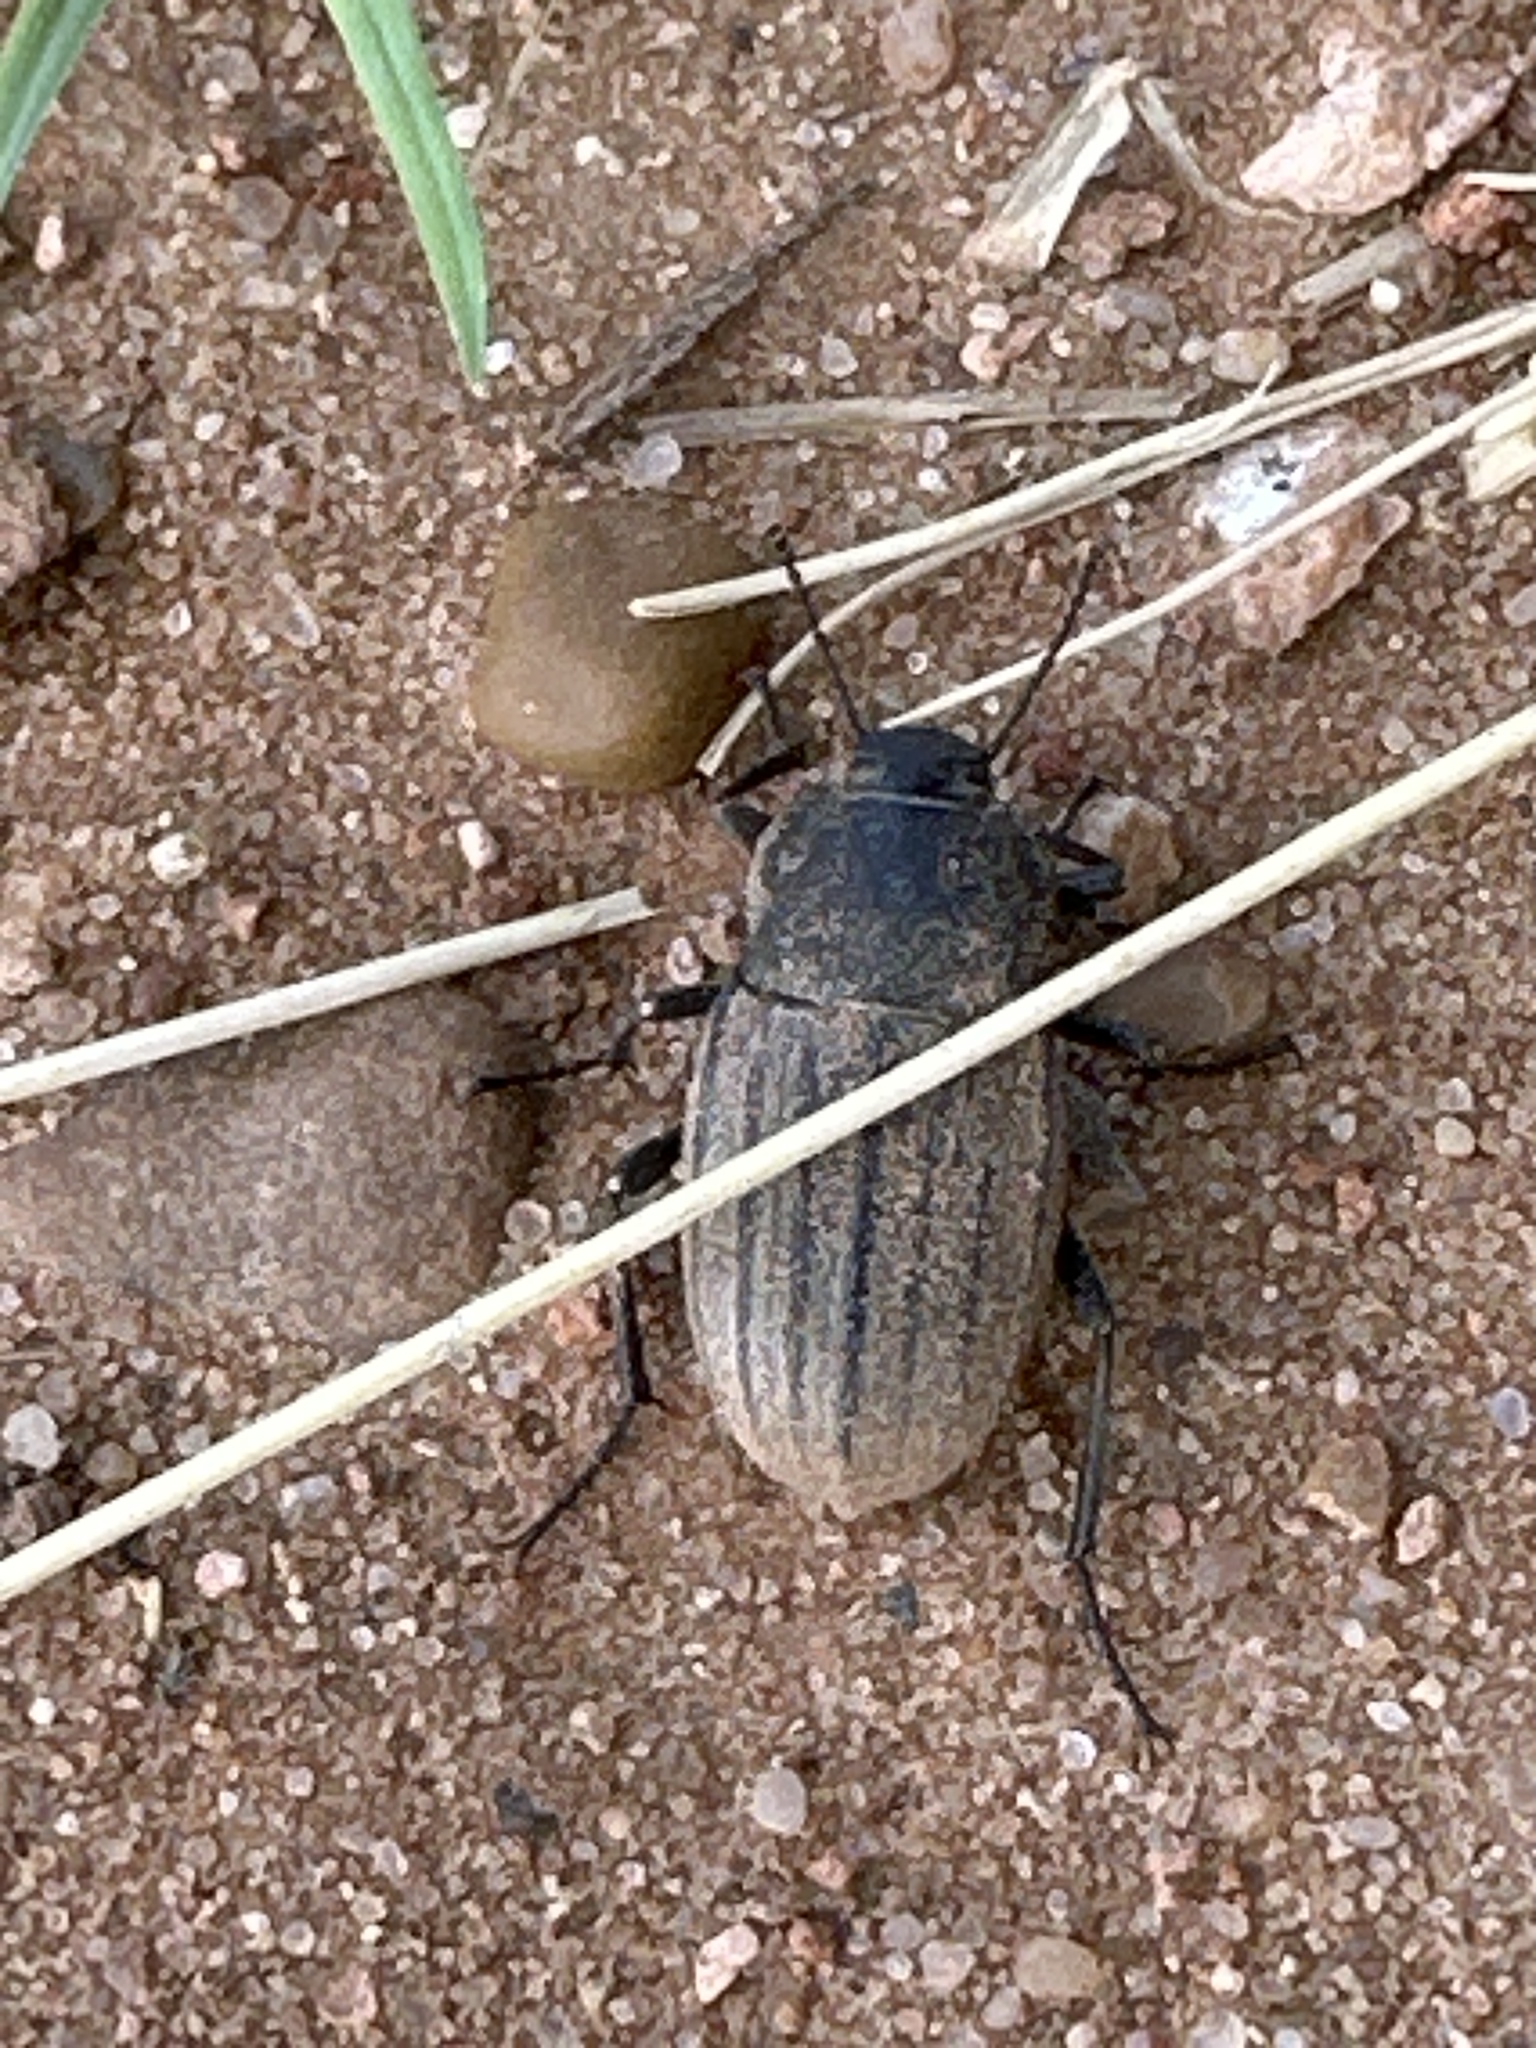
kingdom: Animalia
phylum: Arthropoda
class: Insecta
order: Coleoptera
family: Tenebrionidae
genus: Eleodes
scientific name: Eleodes tricostata
